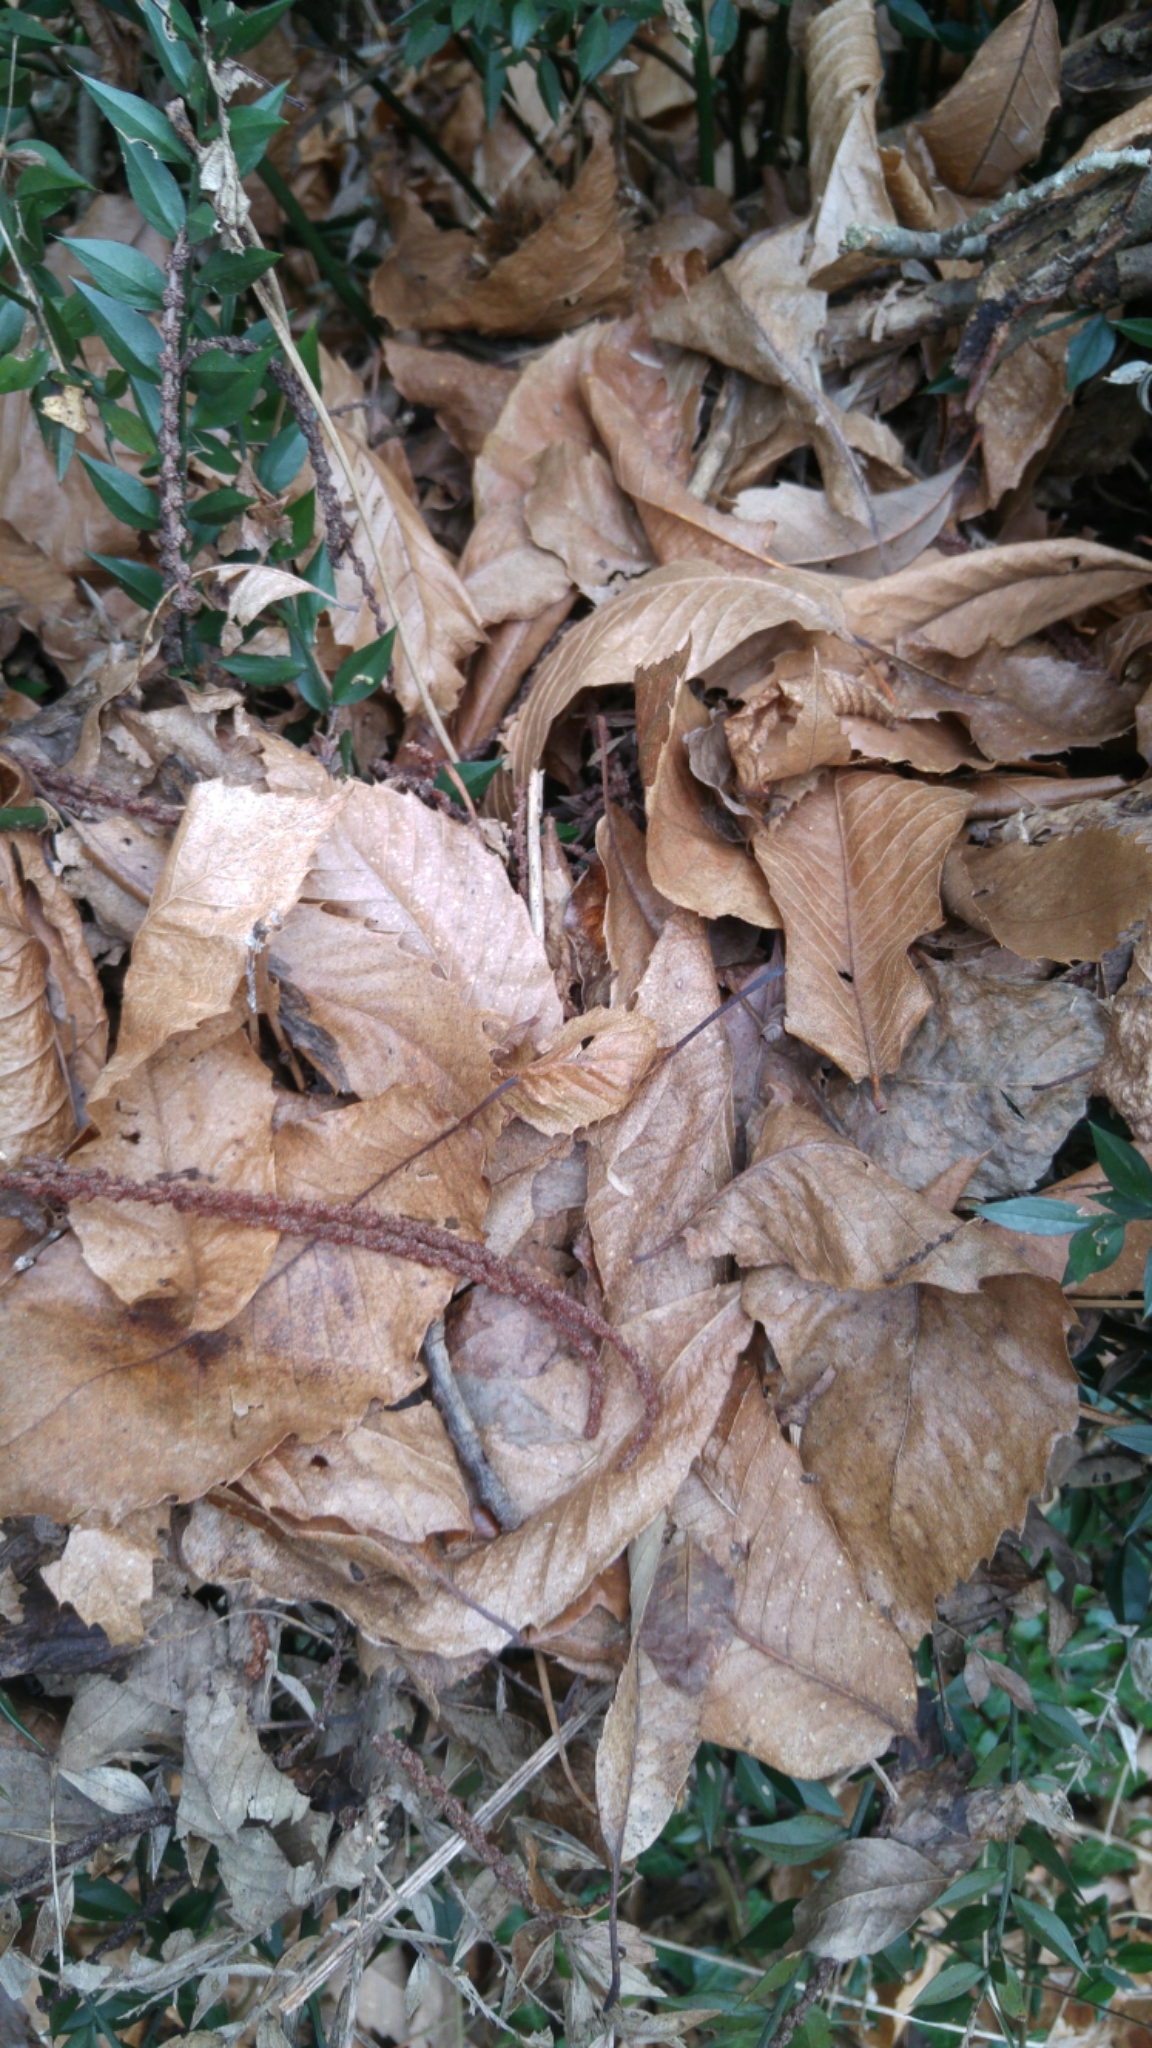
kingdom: Plantae
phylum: Tracheophyta
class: Magnoliopsida
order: Fagales
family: Fagaceae
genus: Castanea
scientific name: Castanea sativa
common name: Sweet chestnut
